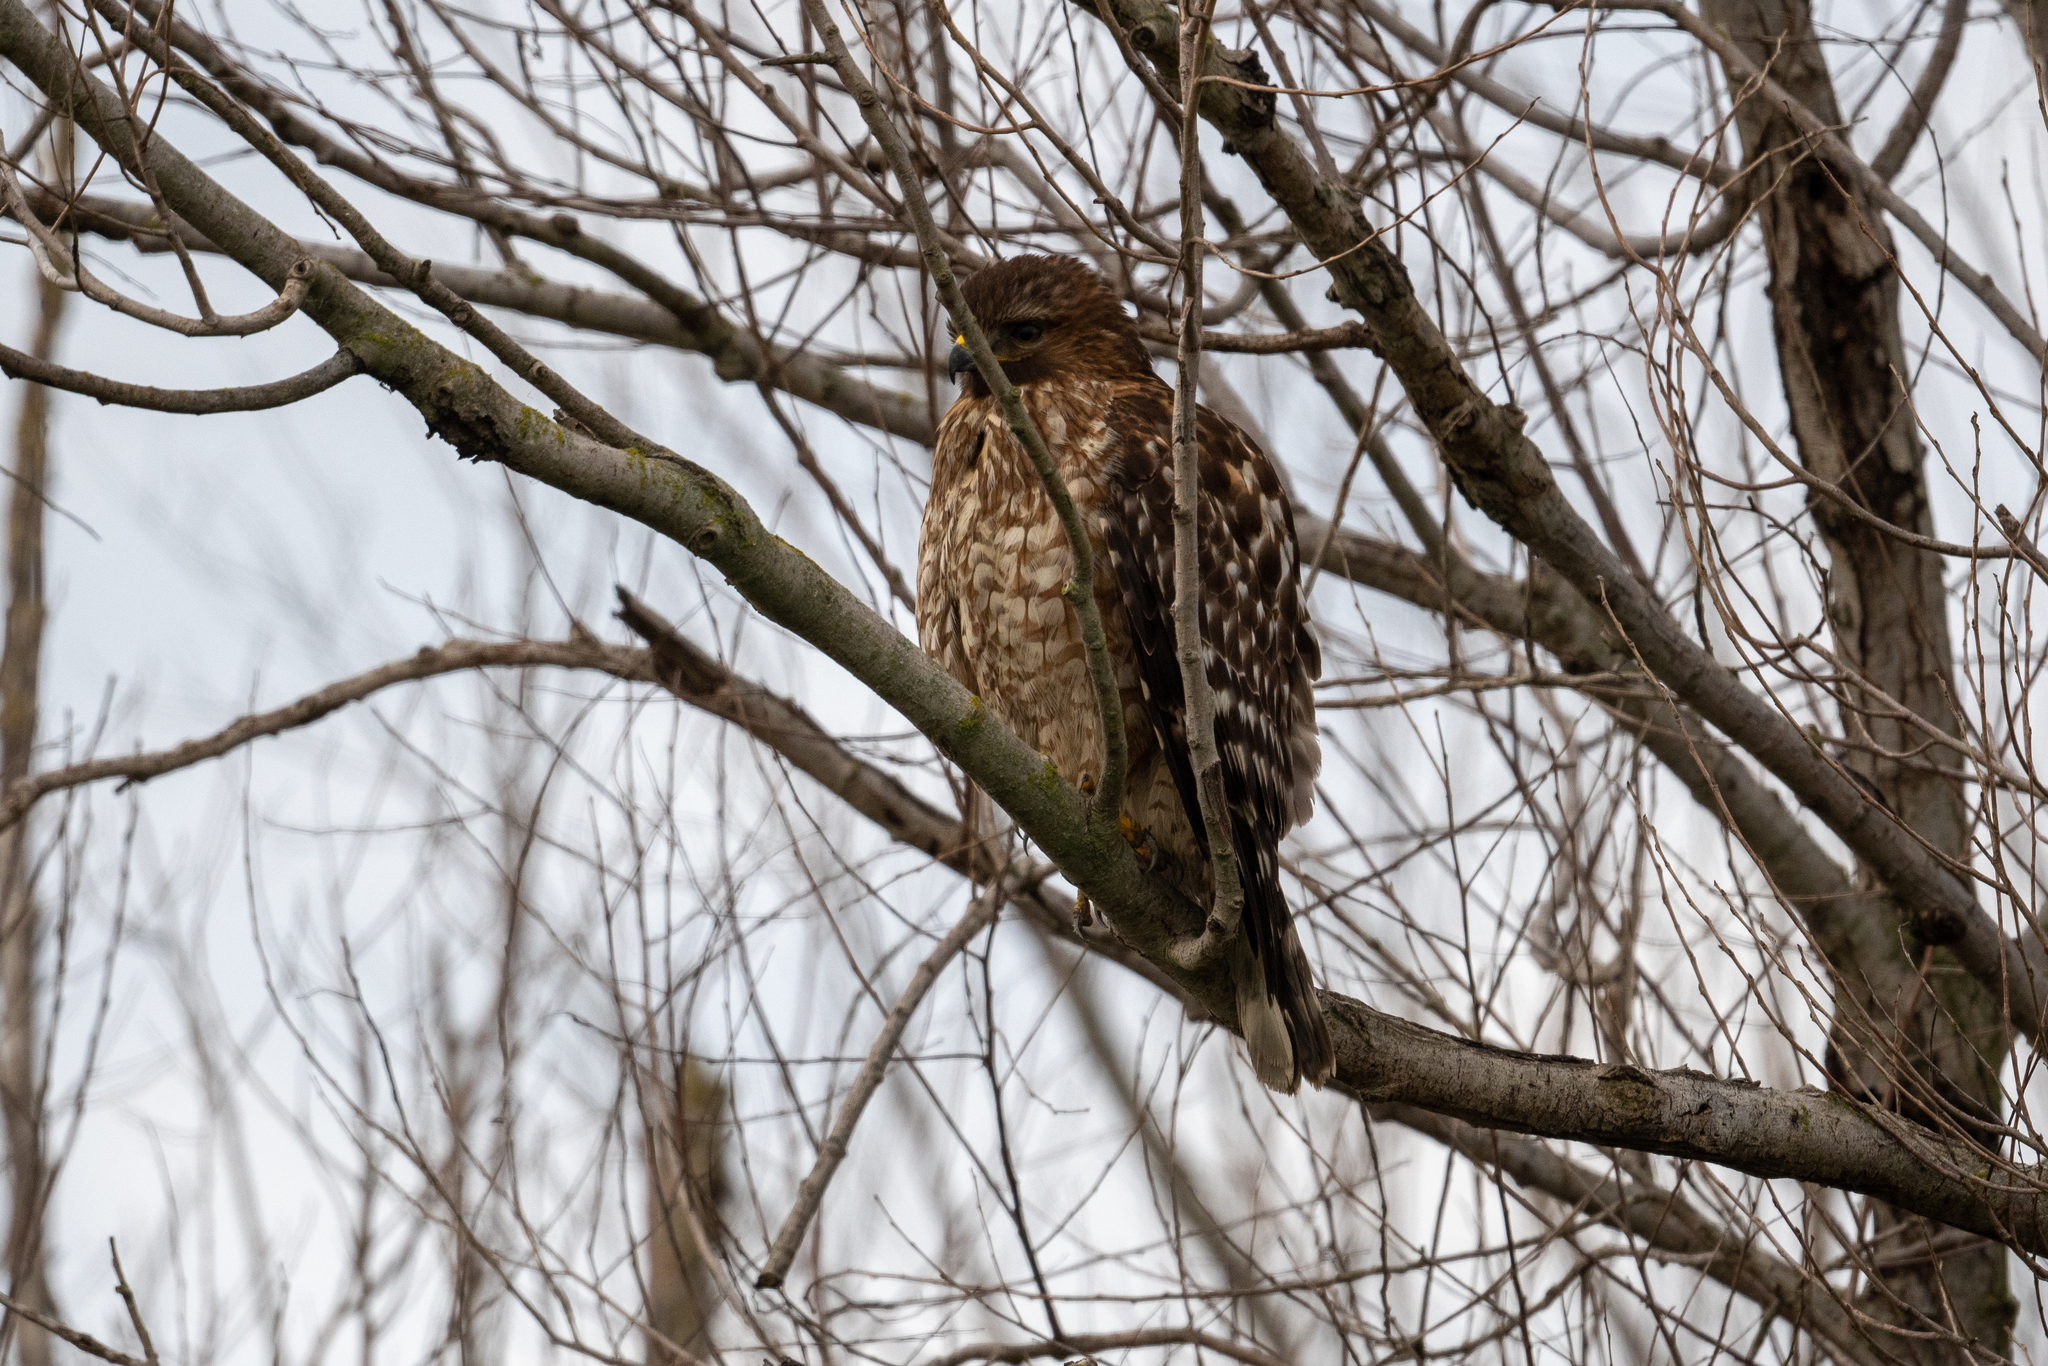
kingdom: Animalia
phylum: Chordata
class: Aves
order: Accipitriformes
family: Accipitridae
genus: Buteo
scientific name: Buteo lineatus
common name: Red-shouldered hawk
